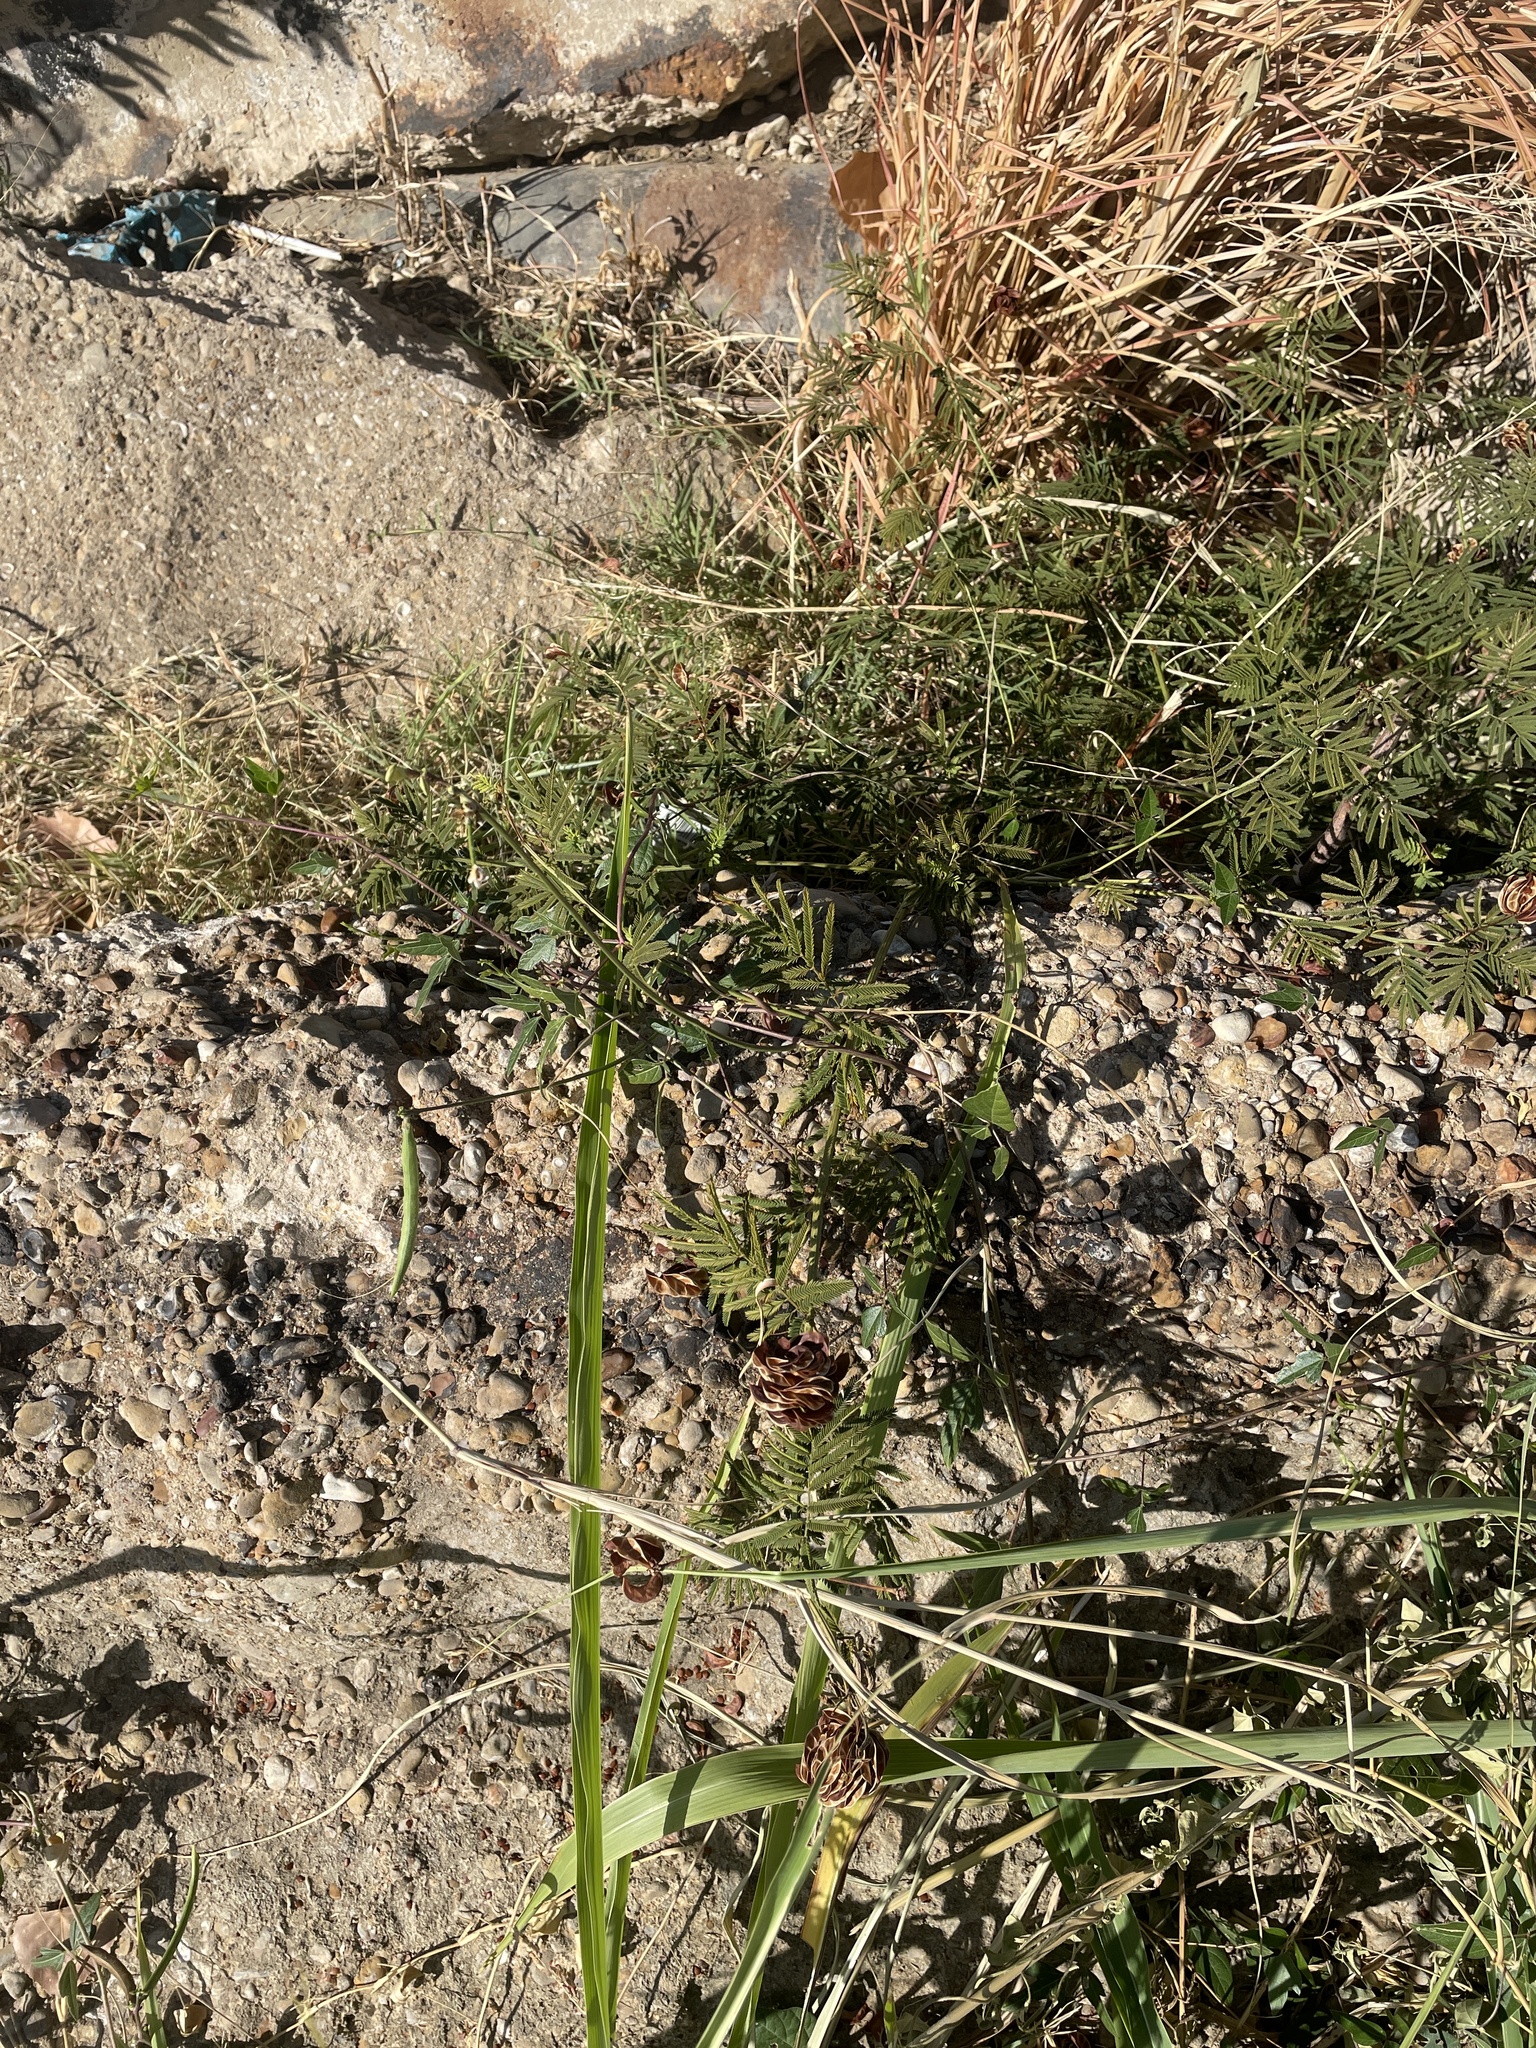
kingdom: Plantae
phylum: Tracheophyta
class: Magnoliopsida
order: Fabales
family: Fabaceae
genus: Desmanthus
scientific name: Desmanthus illinoensis
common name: Illinois bundle-flower
